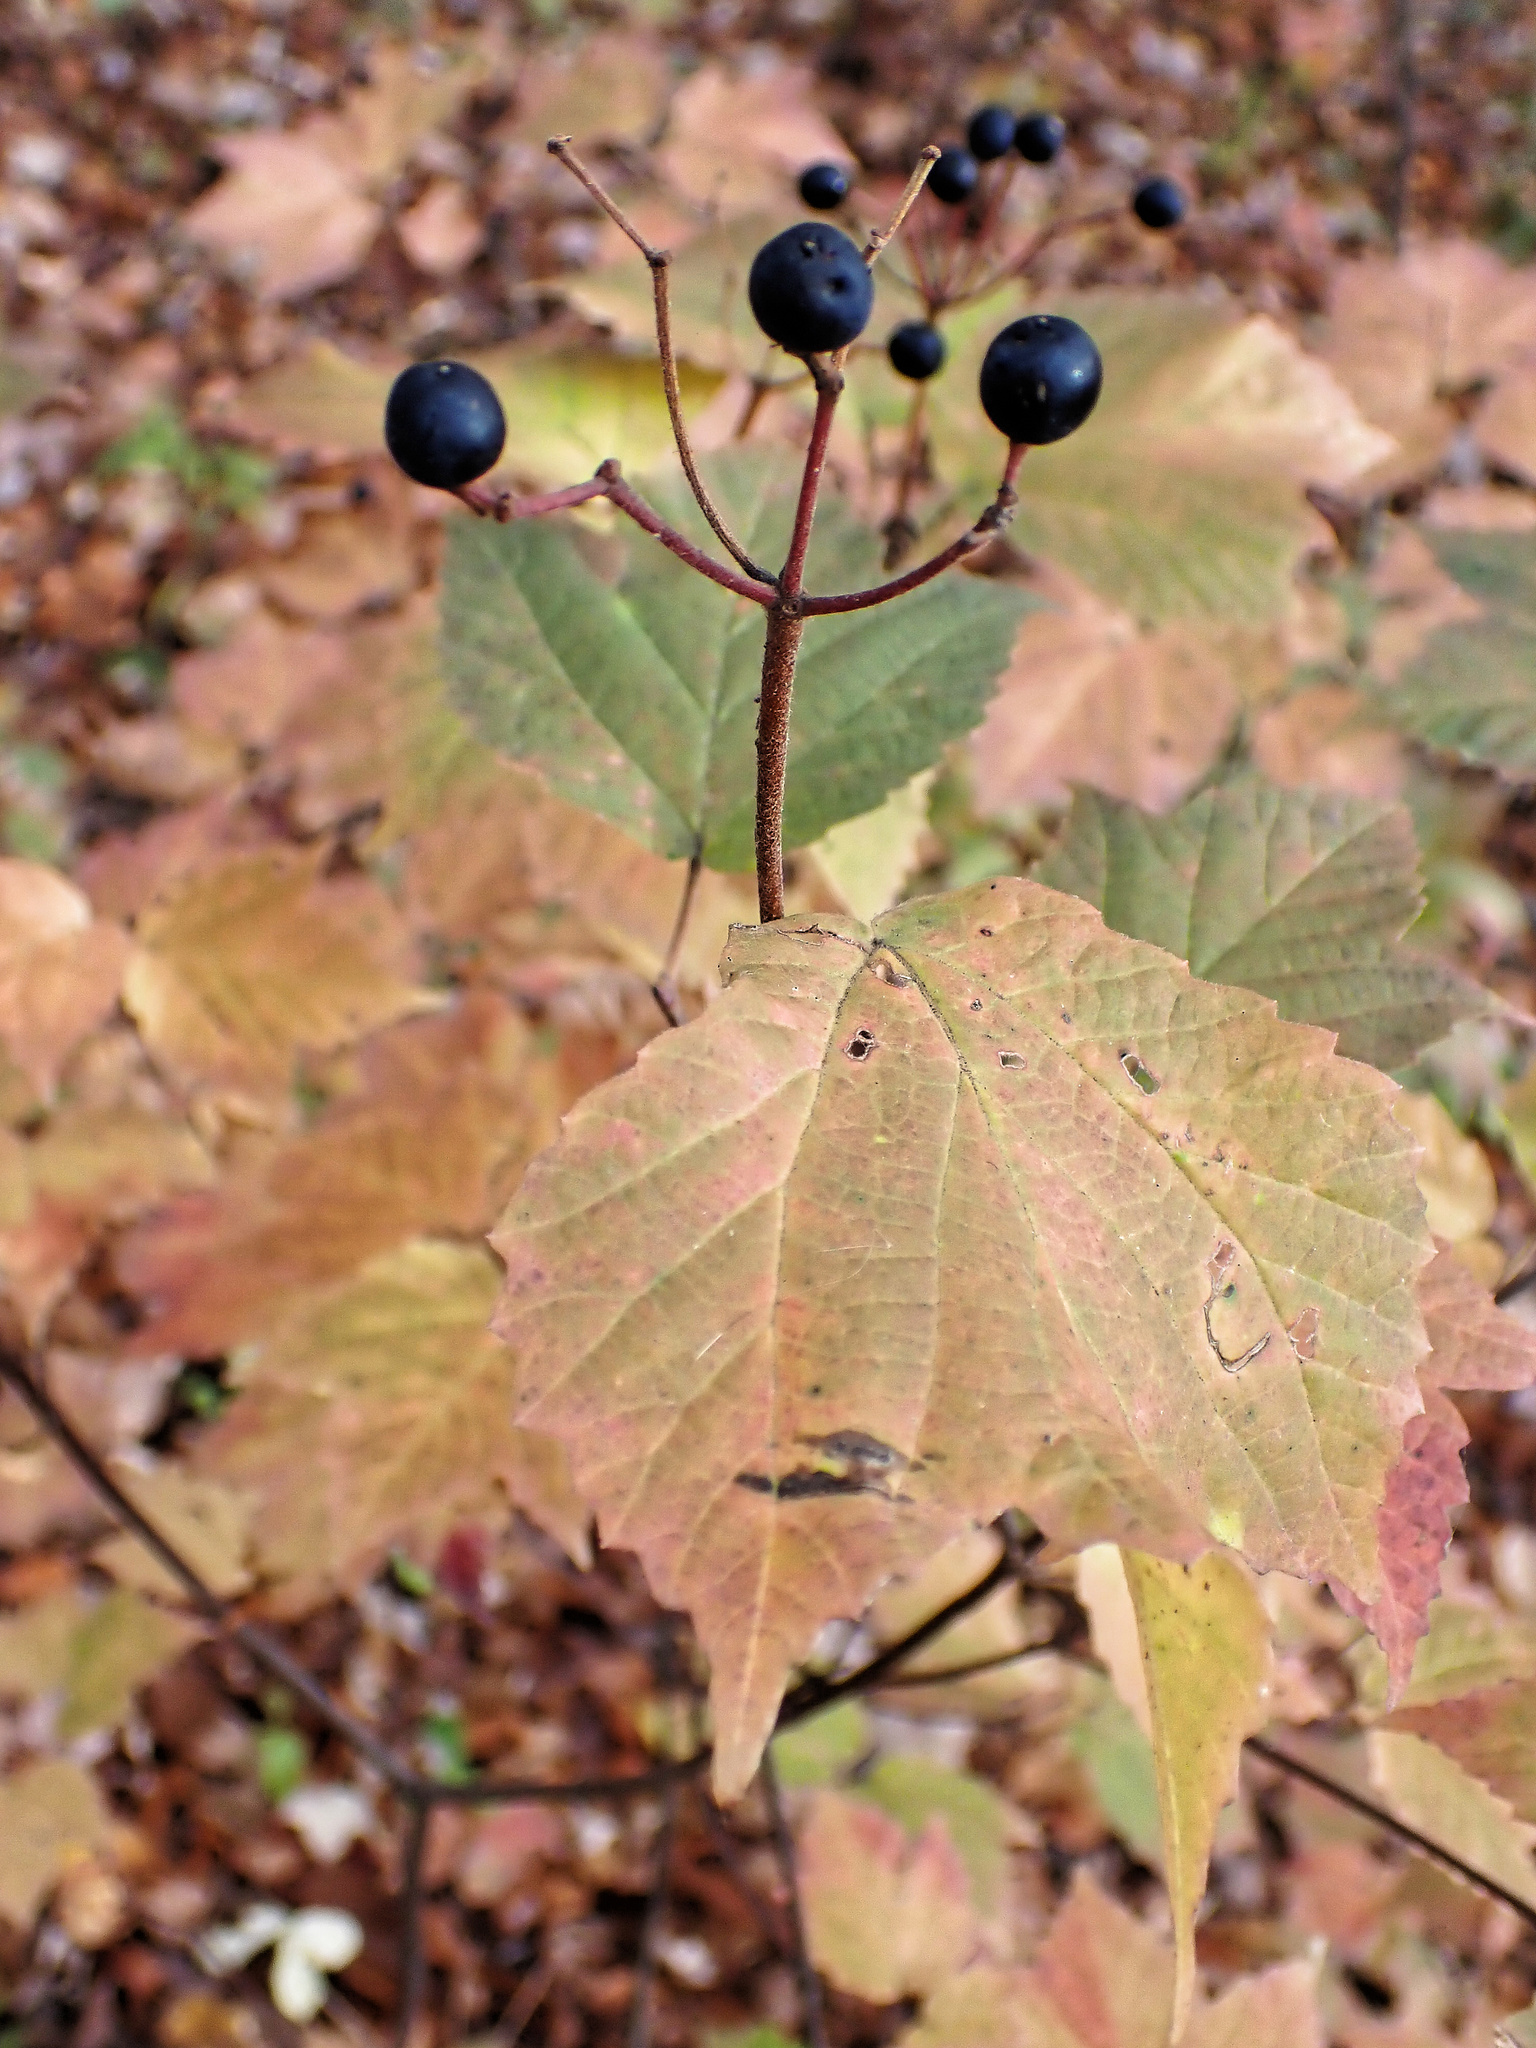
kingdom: Plantae
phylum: Tracheophyta
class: Magnoliopsida
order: Dipsacales
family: Viburnaceae
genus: Viburnum
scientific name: Viburnum acerifolium
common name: Dockmackie
